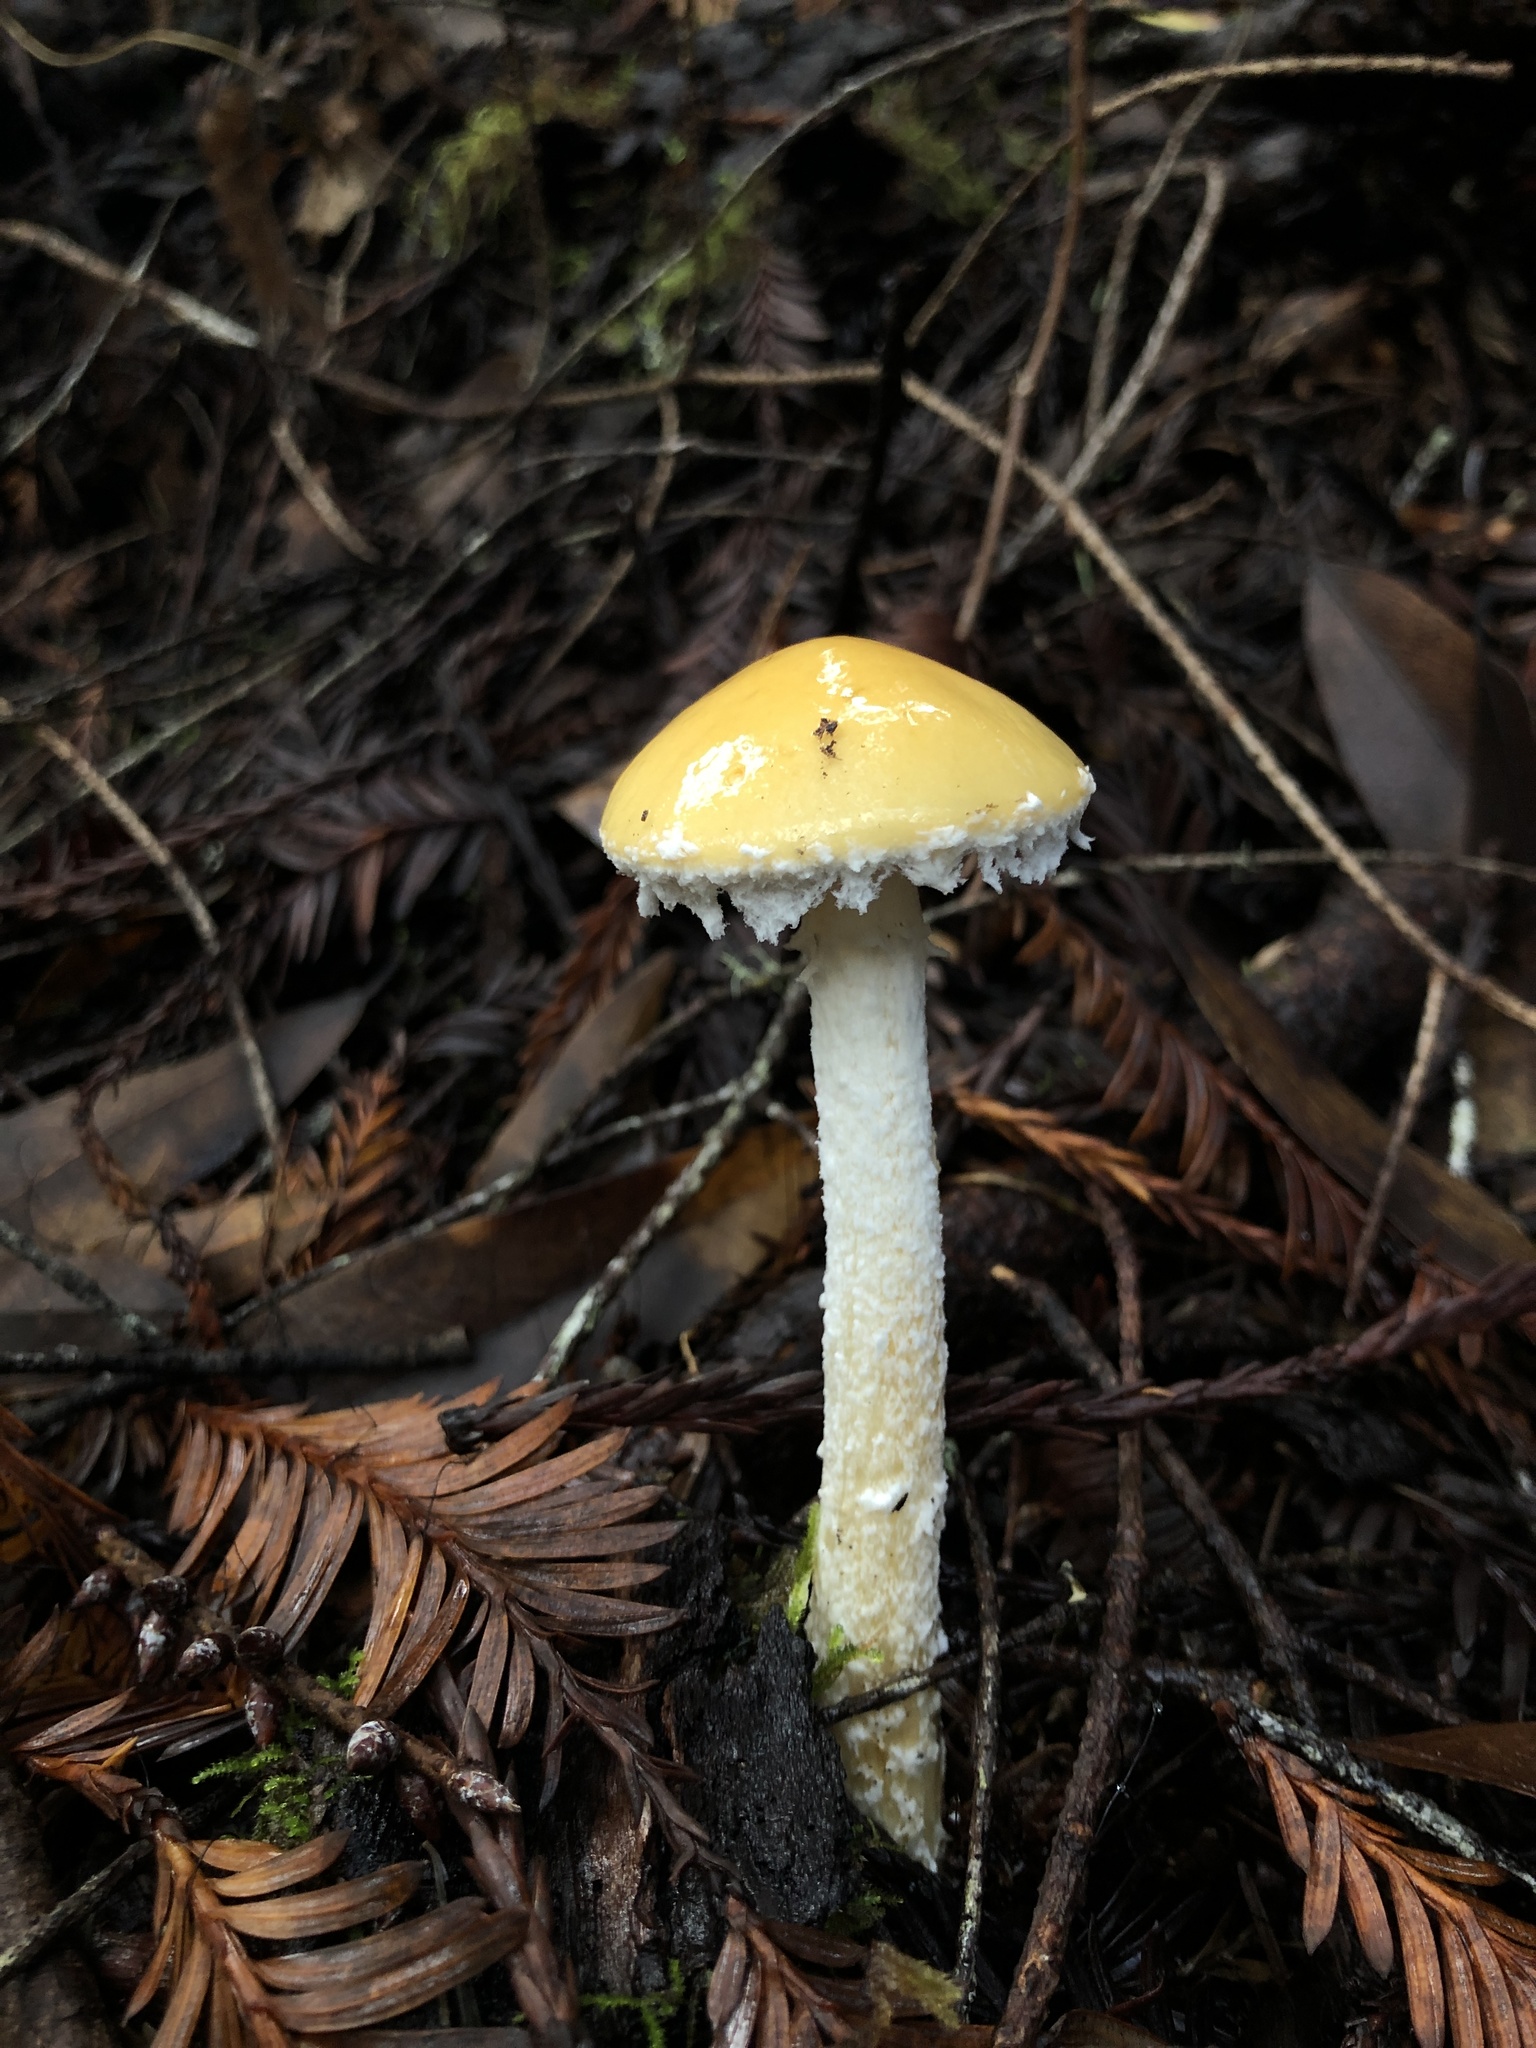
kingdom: Fungi
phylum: Basidiomycota
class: Agaricomycetes
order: Agaricales
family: Strophariaceae
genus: Stropharia
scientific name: Stropharia ambigua
